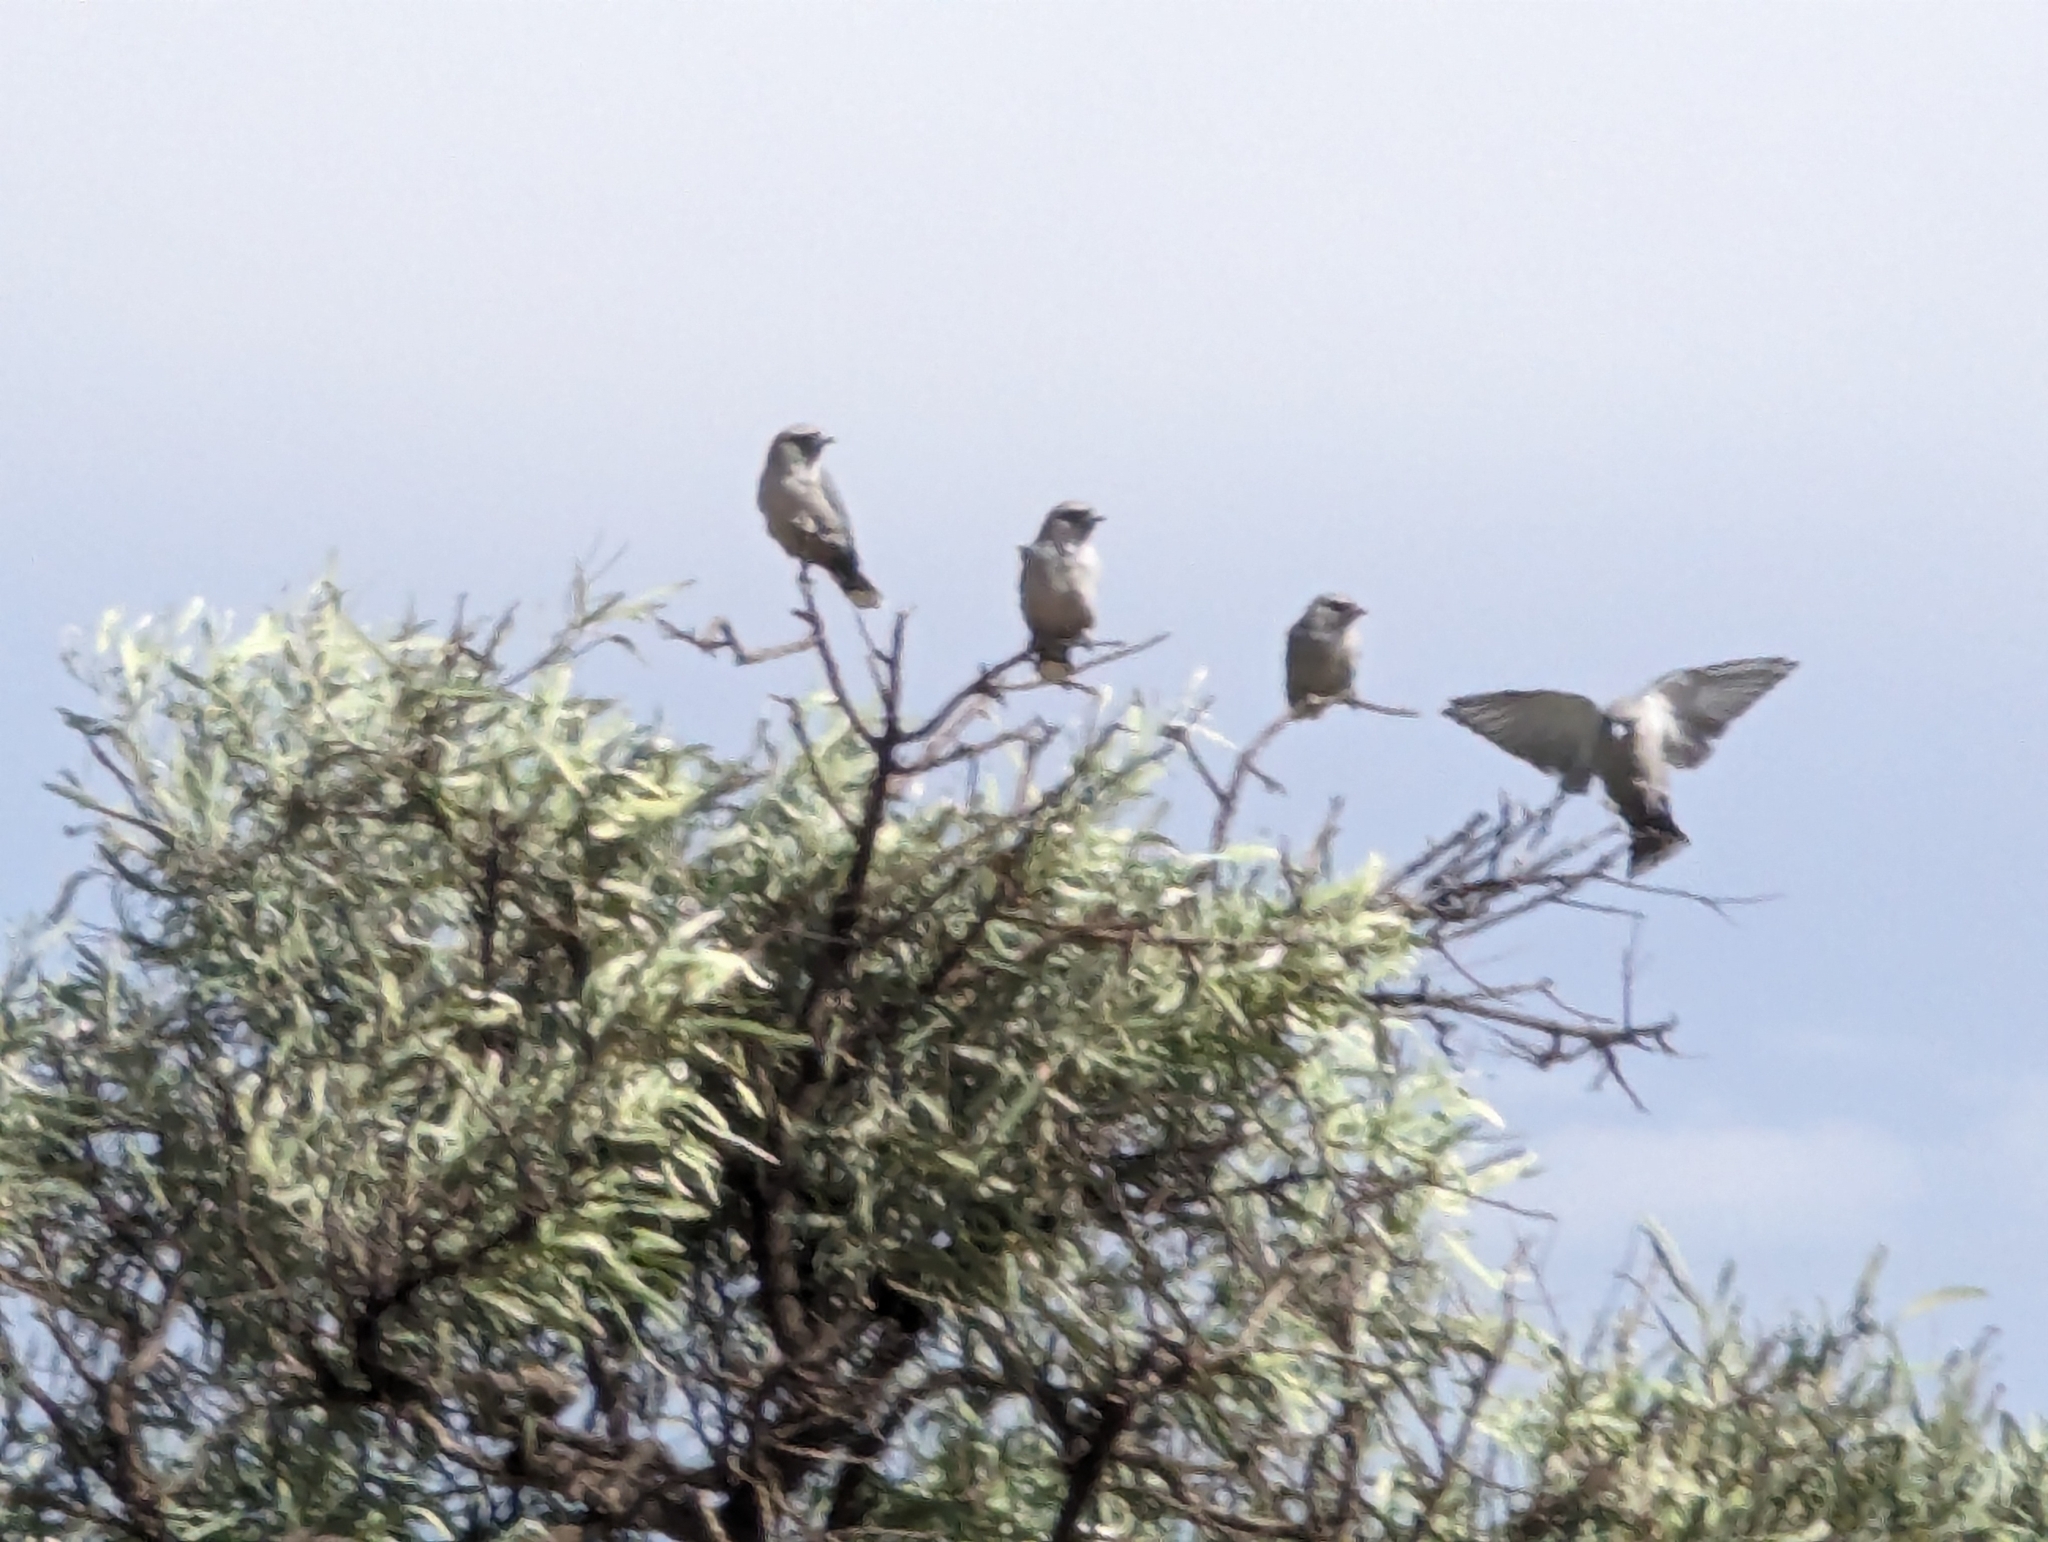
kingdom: Animalia
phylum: Chordata
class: Aves
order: Passeriformes
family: Artamidae
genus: Artamus
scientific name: Artamus cinereus
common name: Black-faced woodswallow
